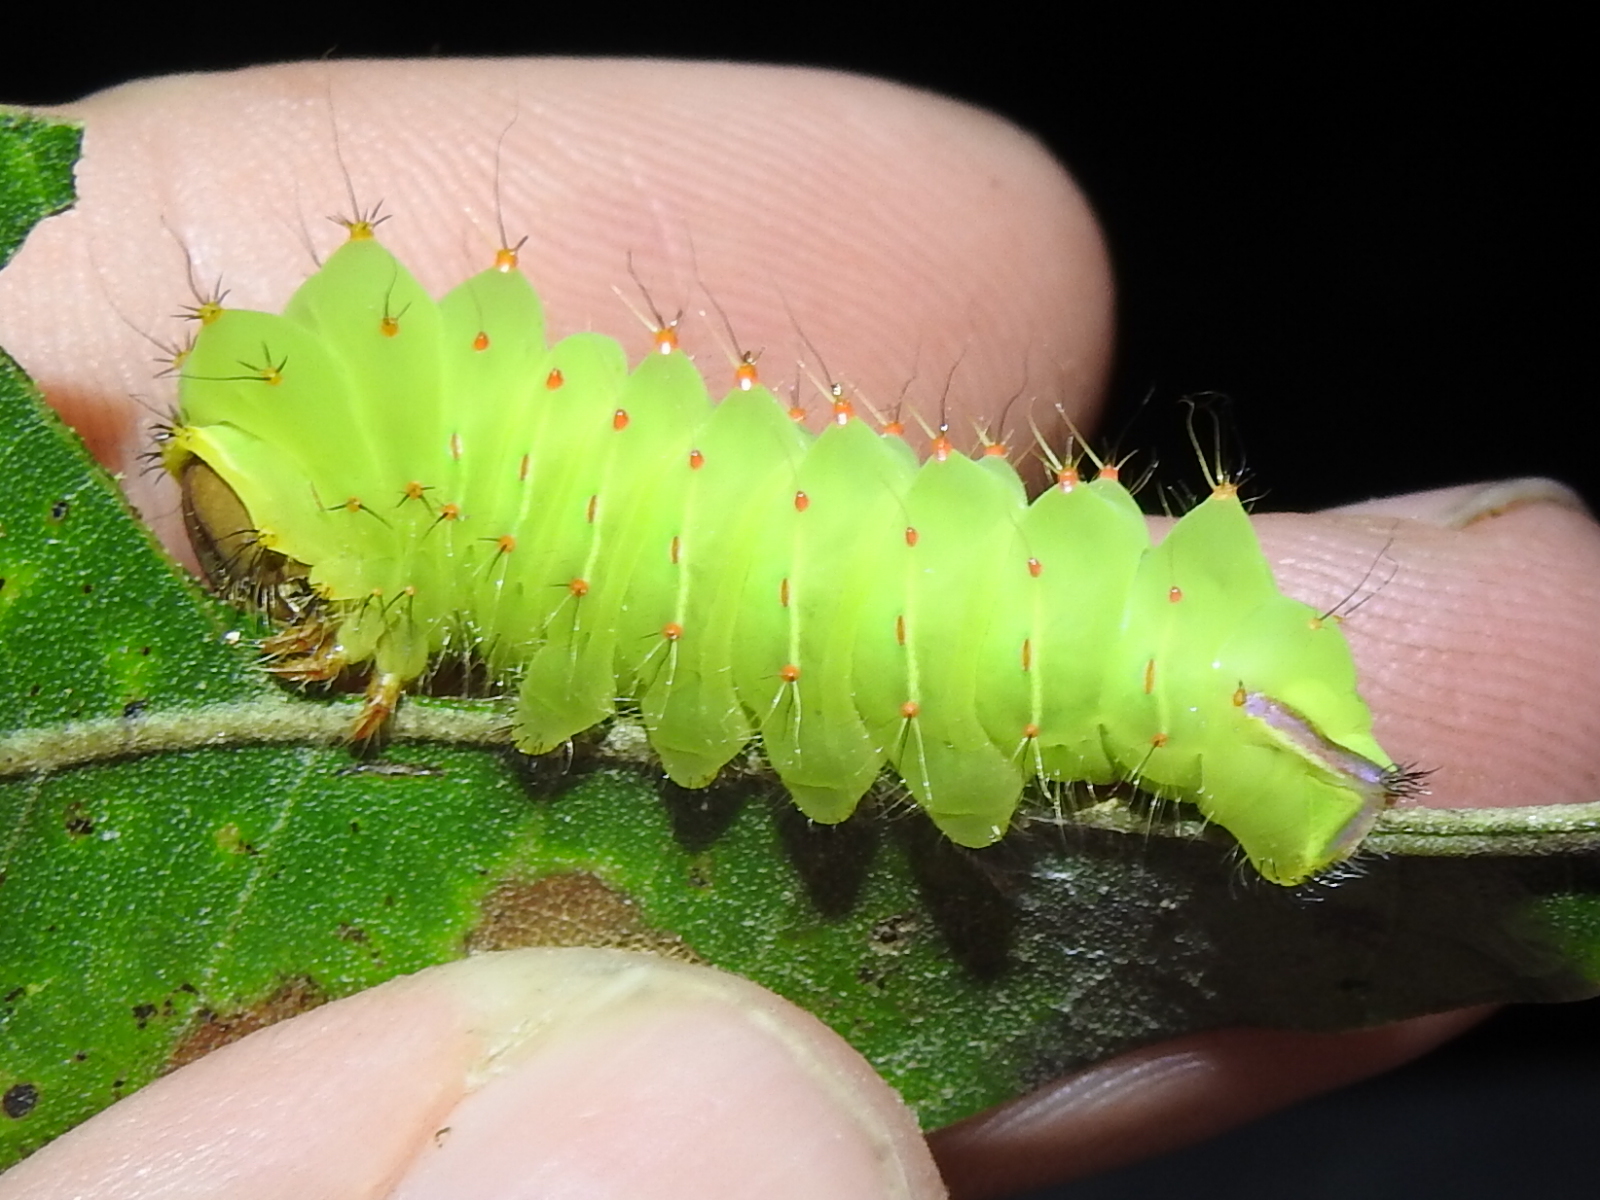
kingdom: Animalia
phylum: Arthropoda
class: Insecta
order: Lepidoptera
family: Saturniidae
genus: Antheraea
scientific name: Antheraea polyphemus
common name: Polyphemus moth
